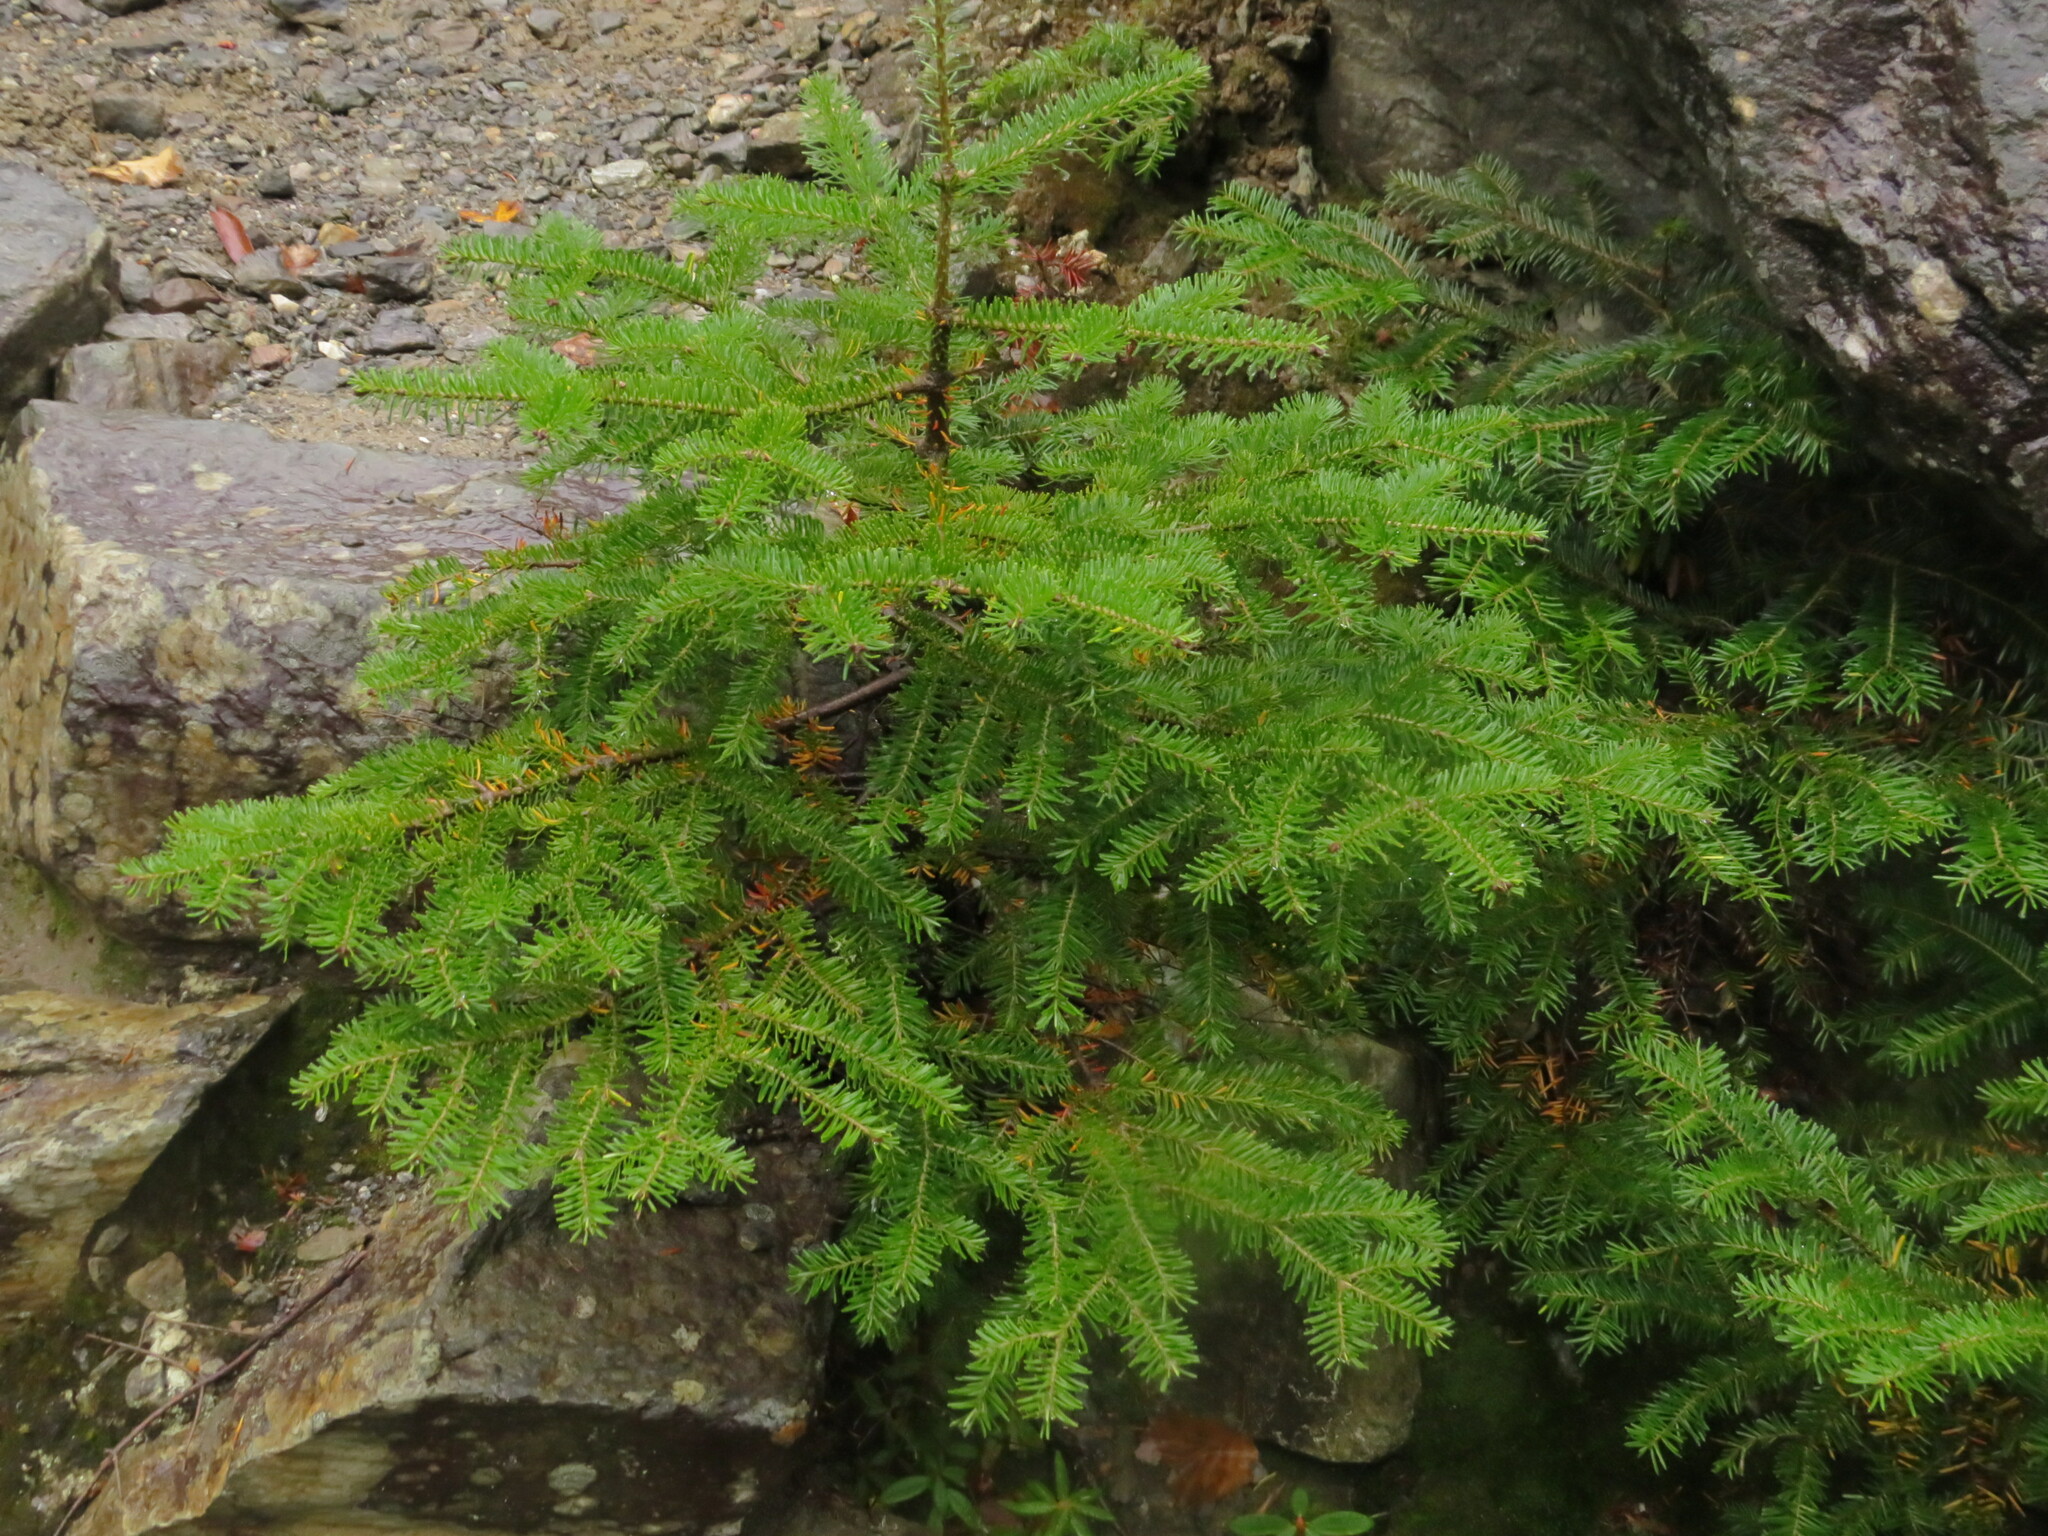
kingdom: Plantae
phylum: Tracheophyta
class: Pinopsida
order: Pinales
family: Pinaceae
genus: Abies
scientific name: Abies balsamea
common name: Balsam fir
